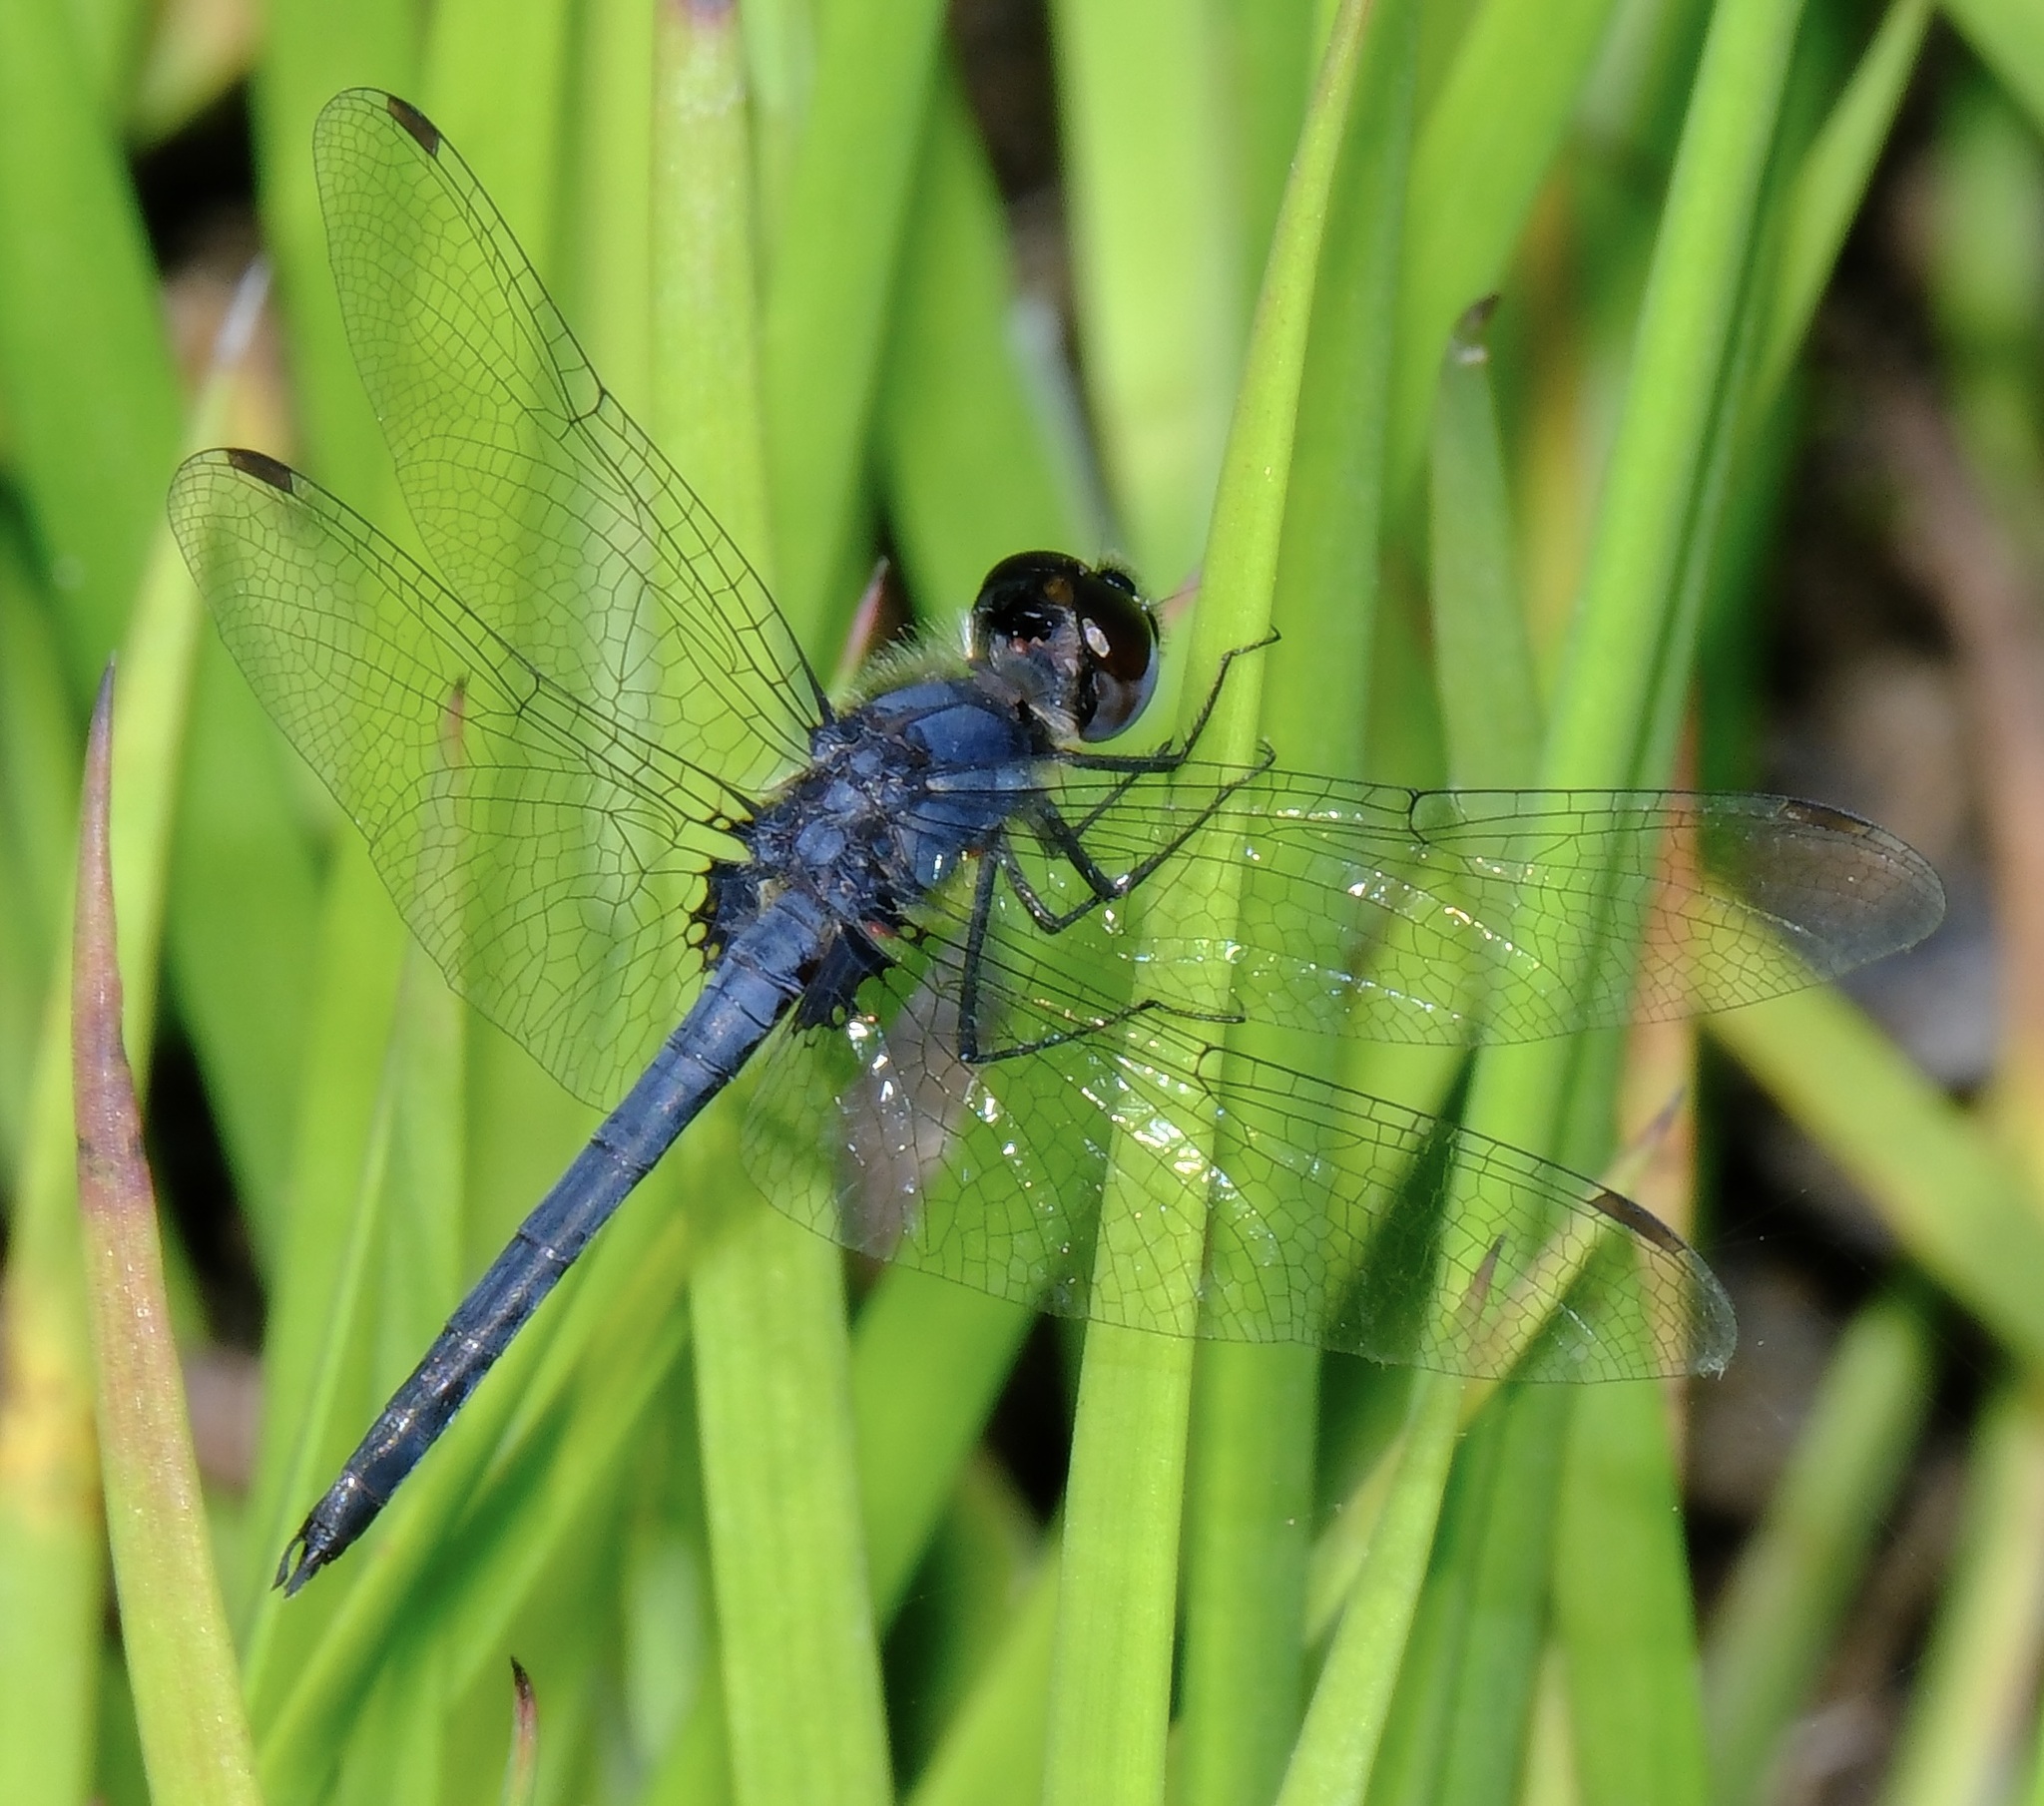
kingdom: Animalia
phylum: Arthropoda
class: Insecta
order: Odonata
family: Libellulidae
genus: Celithemis
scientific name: Celithemis verna
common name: Double-ringed pennant
